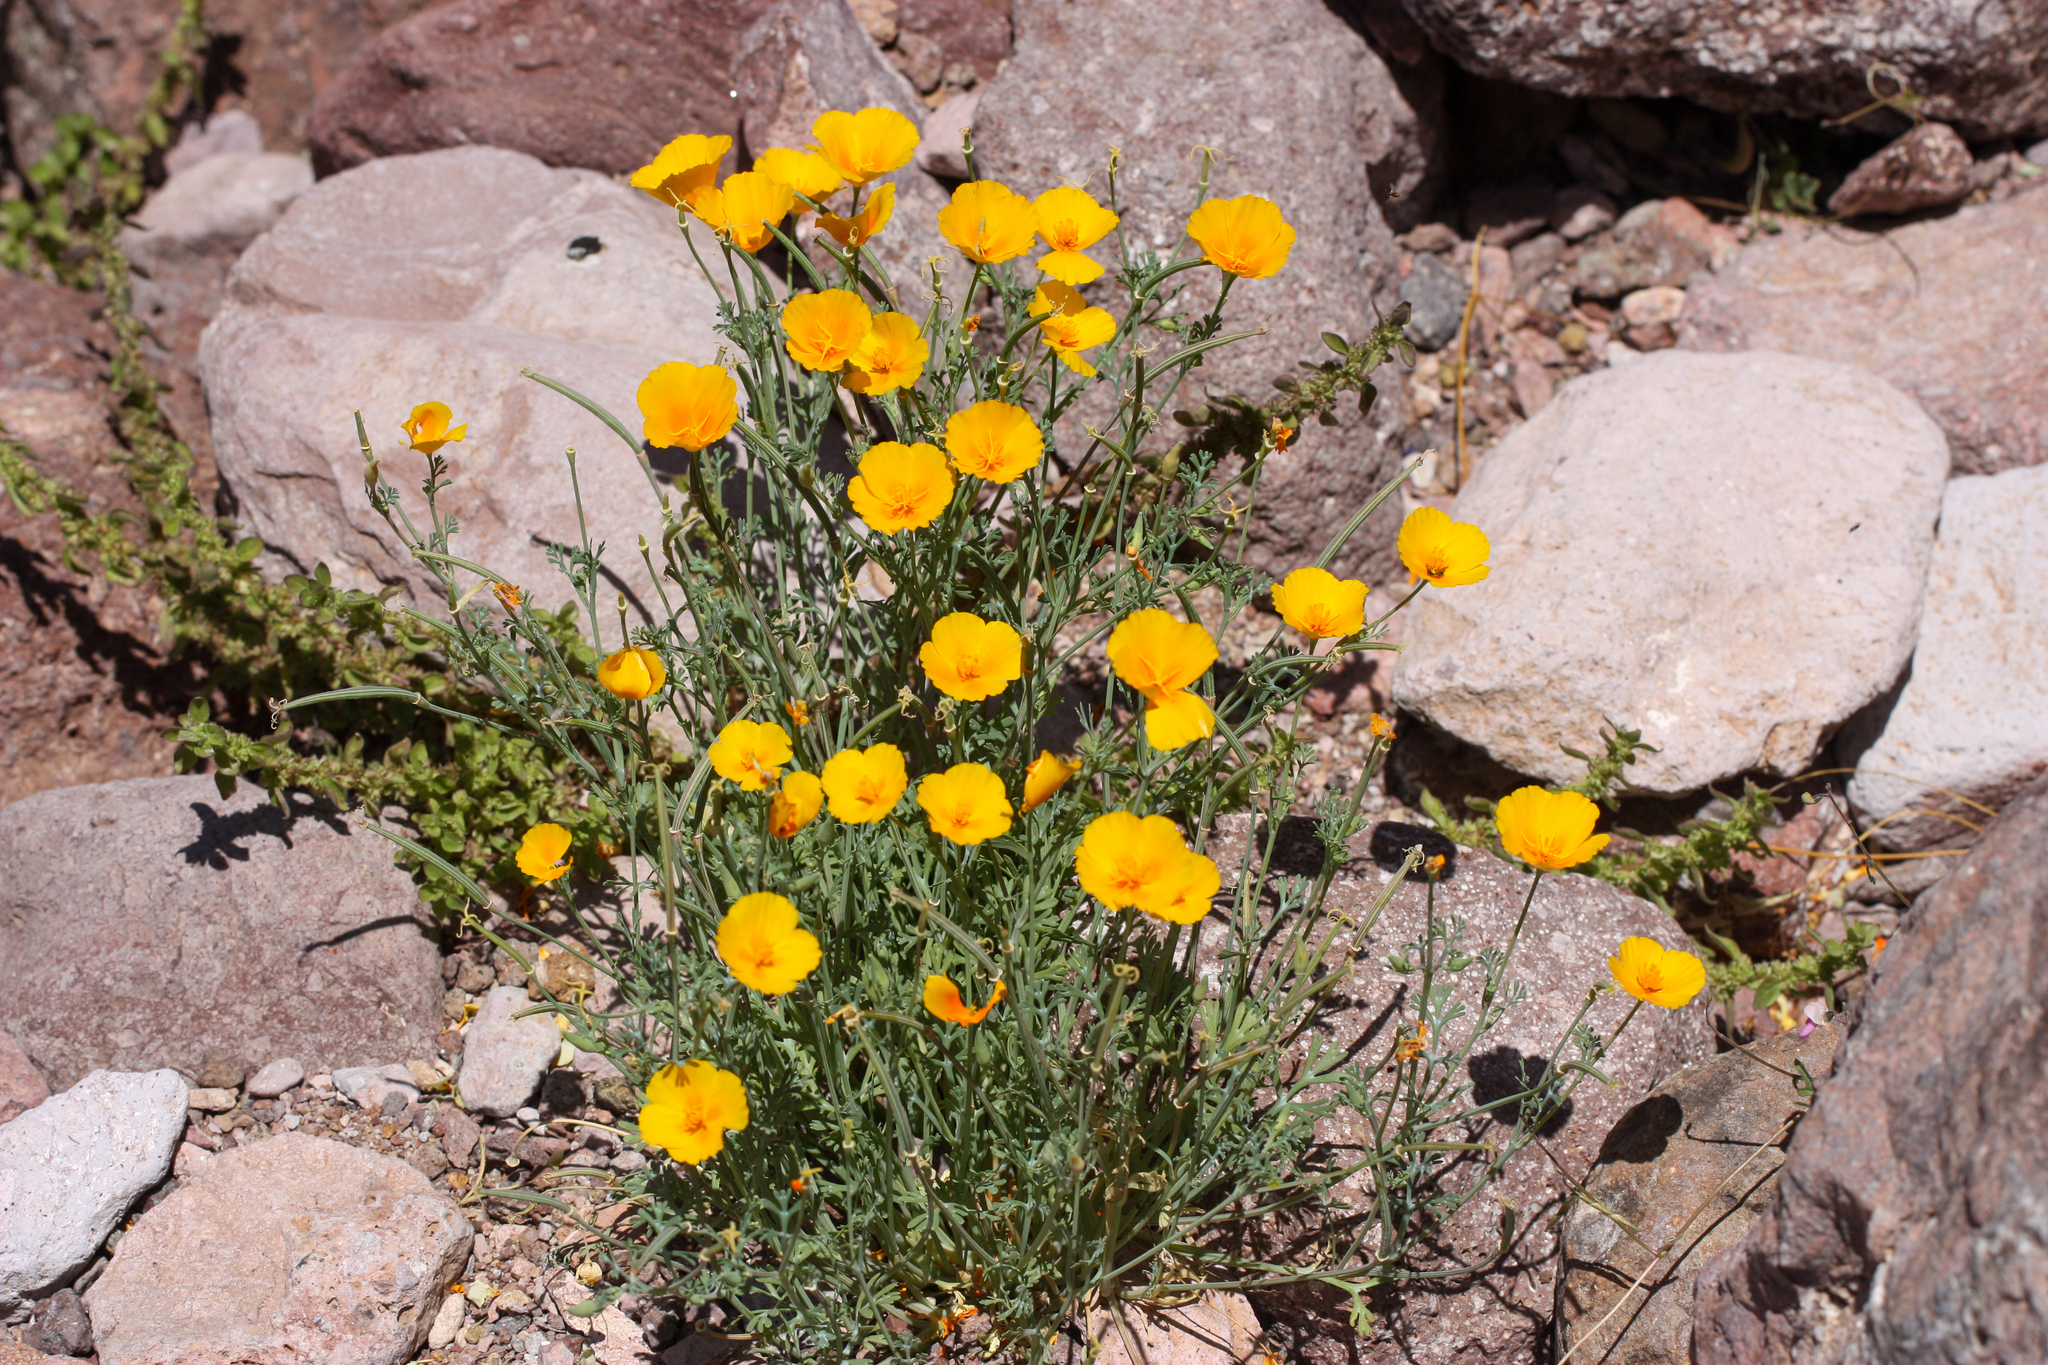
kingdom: Plantae
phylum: Tracheophyta
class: Magnoliopsida
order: Ranunculales
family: Papaveraceae
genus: Eschscholzia
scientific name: Eschscholzia californica
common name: California poppy
